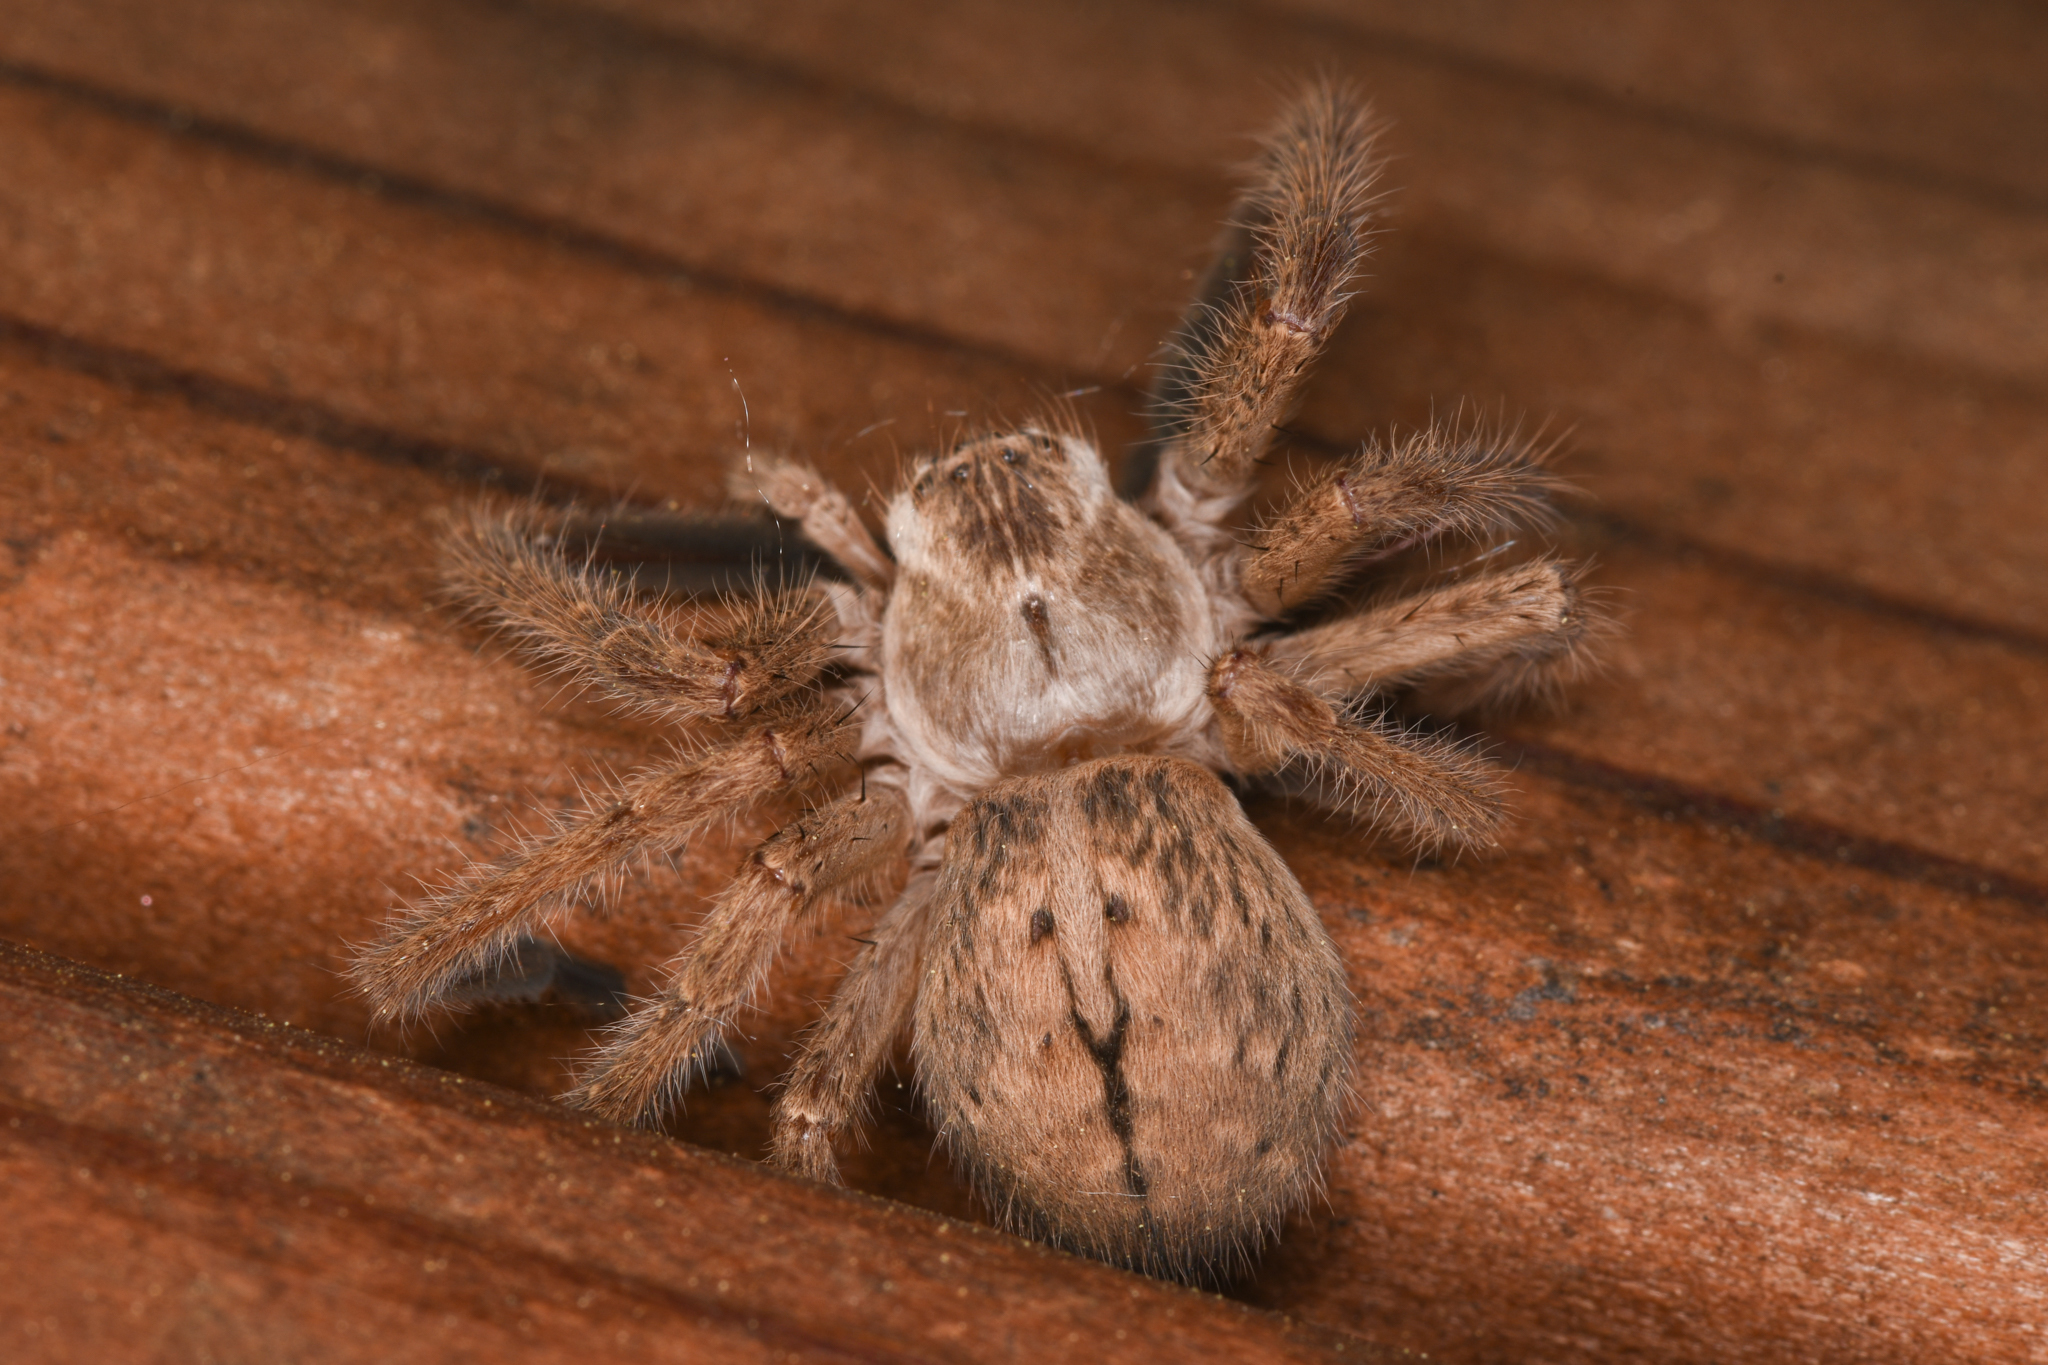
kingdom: Animalia
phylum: Arthropoda
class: Arachnida
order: Araneae
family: Sparassidae
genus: Olios
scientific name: Olios giganteus
